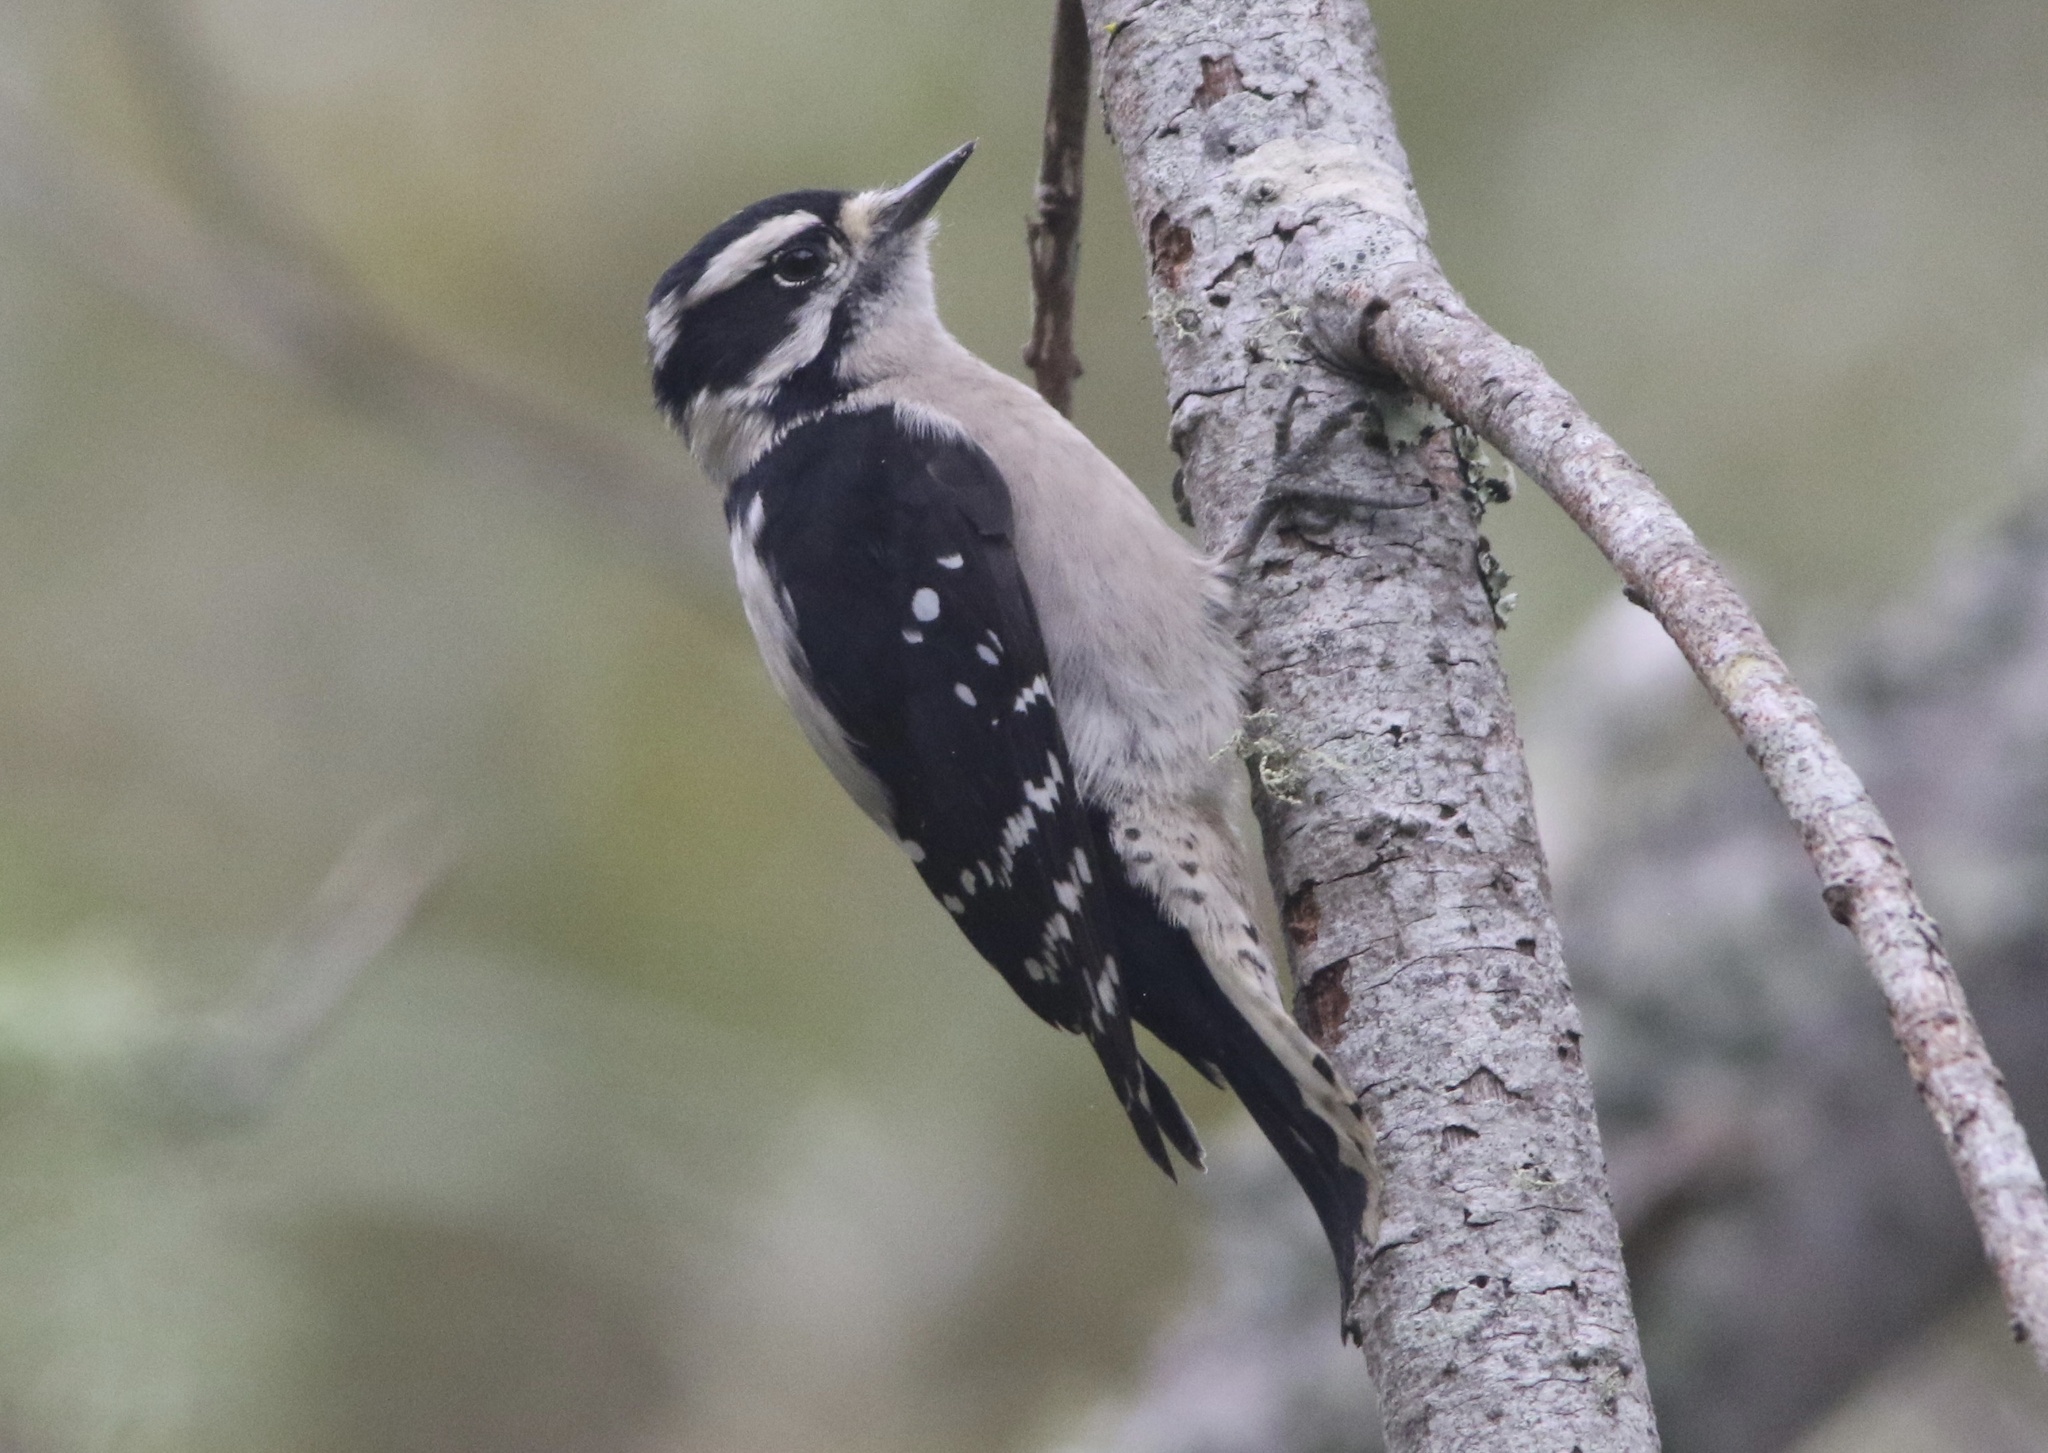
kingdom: Animalia
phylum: Chordata
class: Aves
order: Piciformes
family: Picidae
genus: Dryobates
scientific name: Dryobates pubescens
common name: Downy woodpecker
